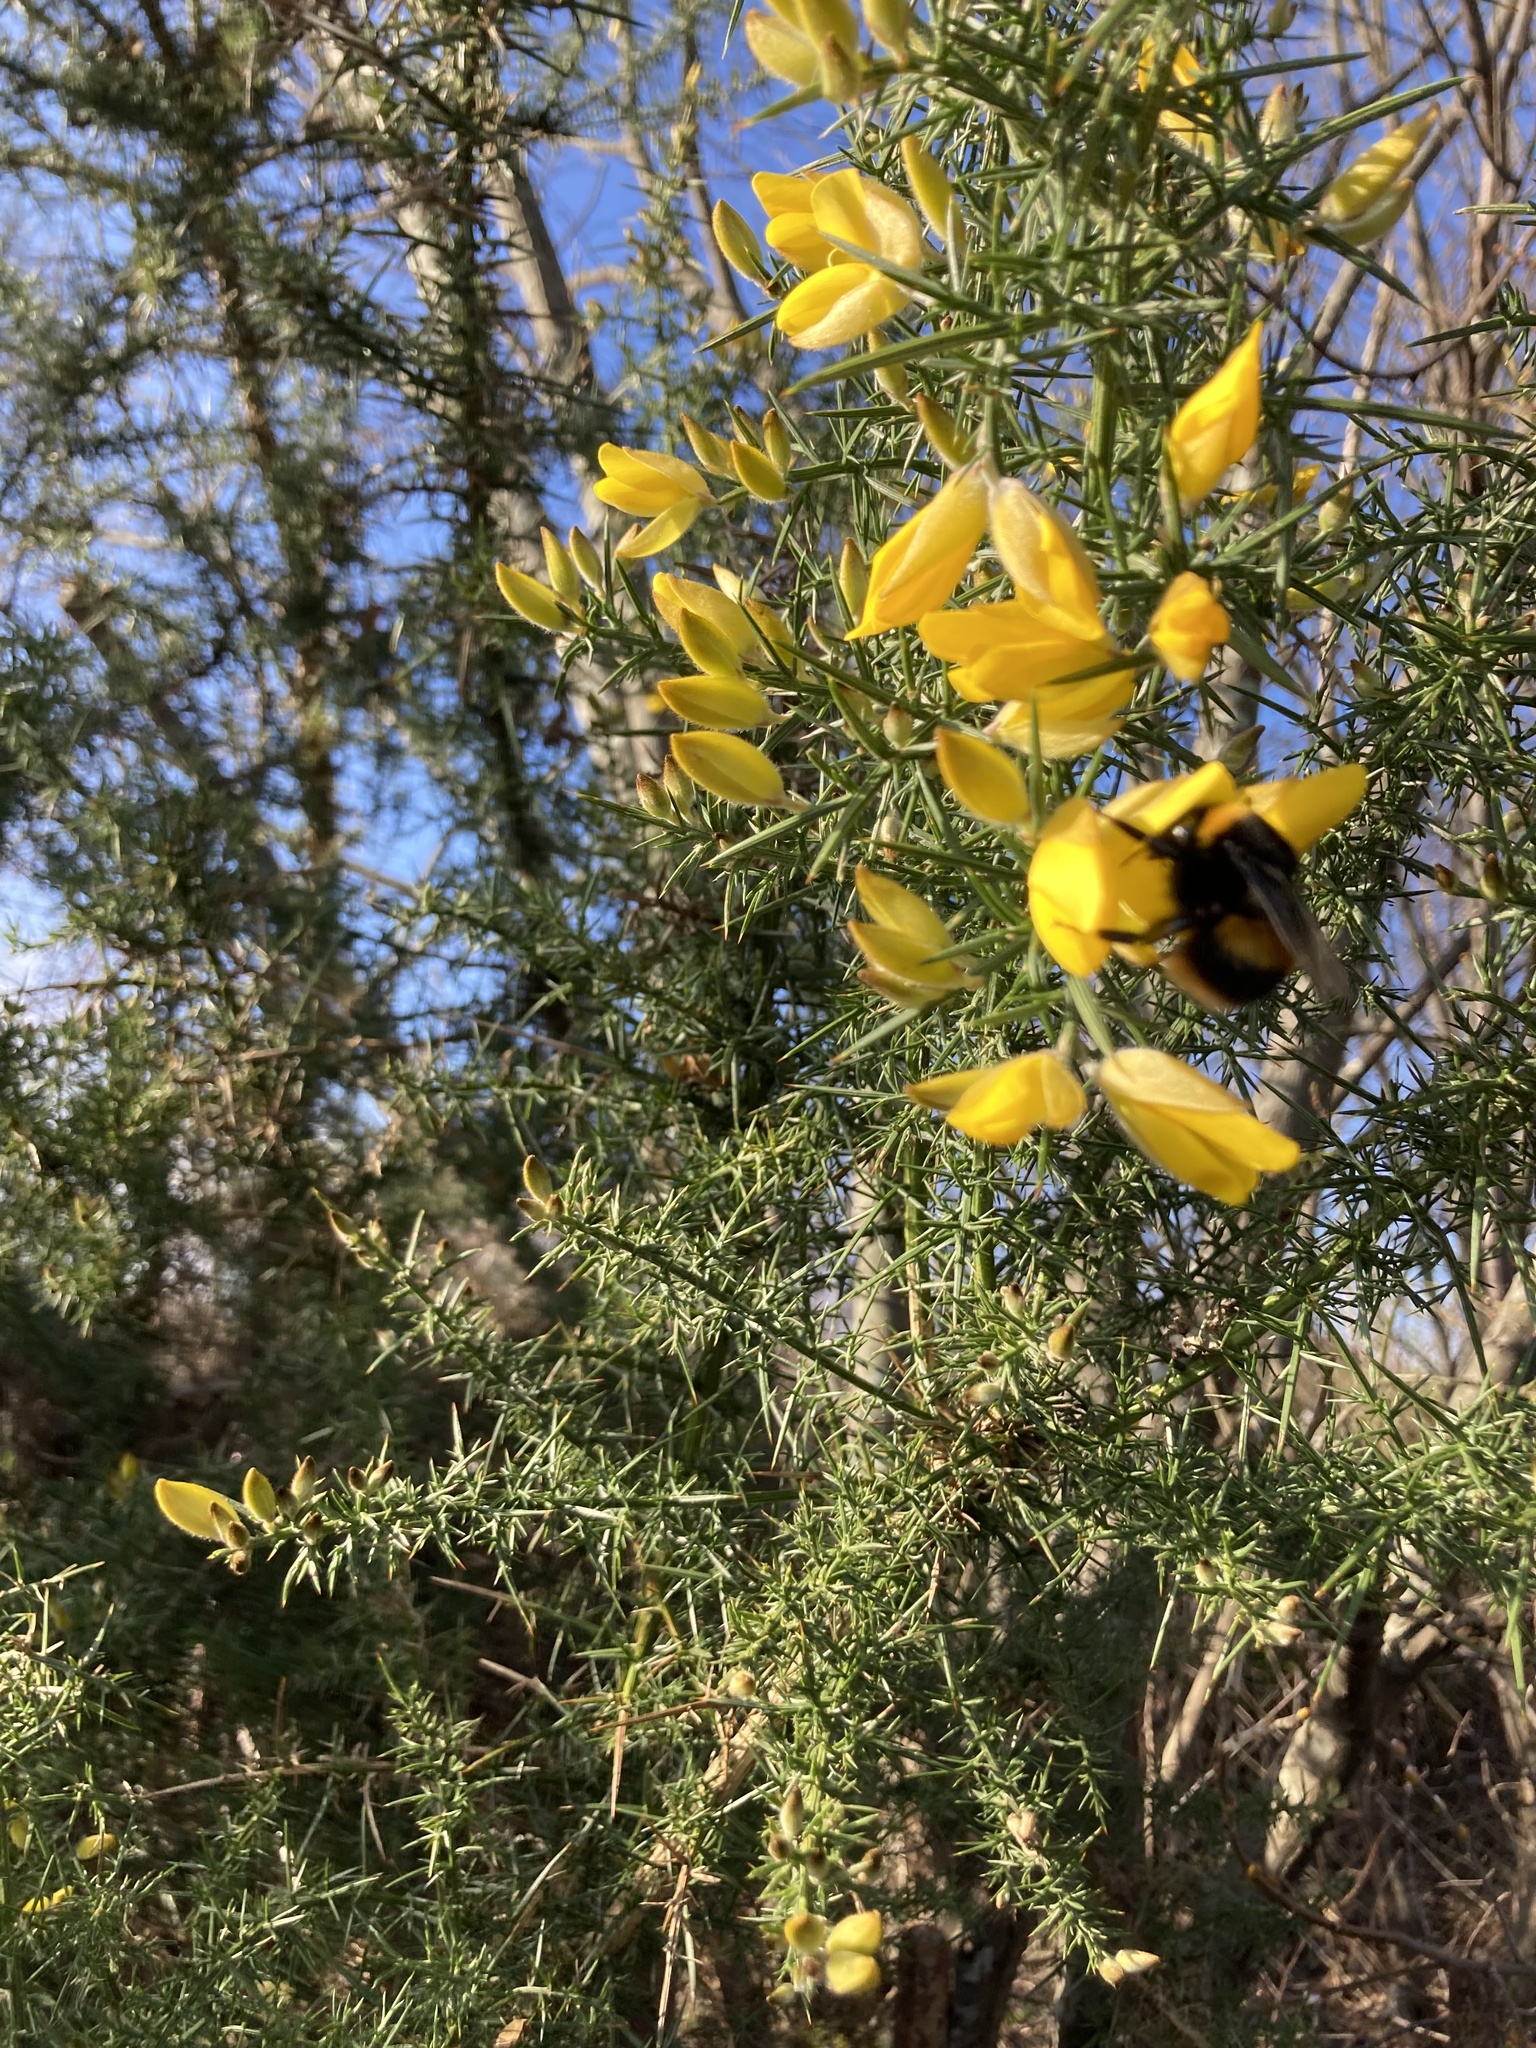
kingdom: Animalia
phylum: Arthropoda
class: Insecta
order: Hymenoptera
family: Apidae
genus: Bombus
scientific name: Bombus terrestris
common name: Buff-tailed bumblebee
